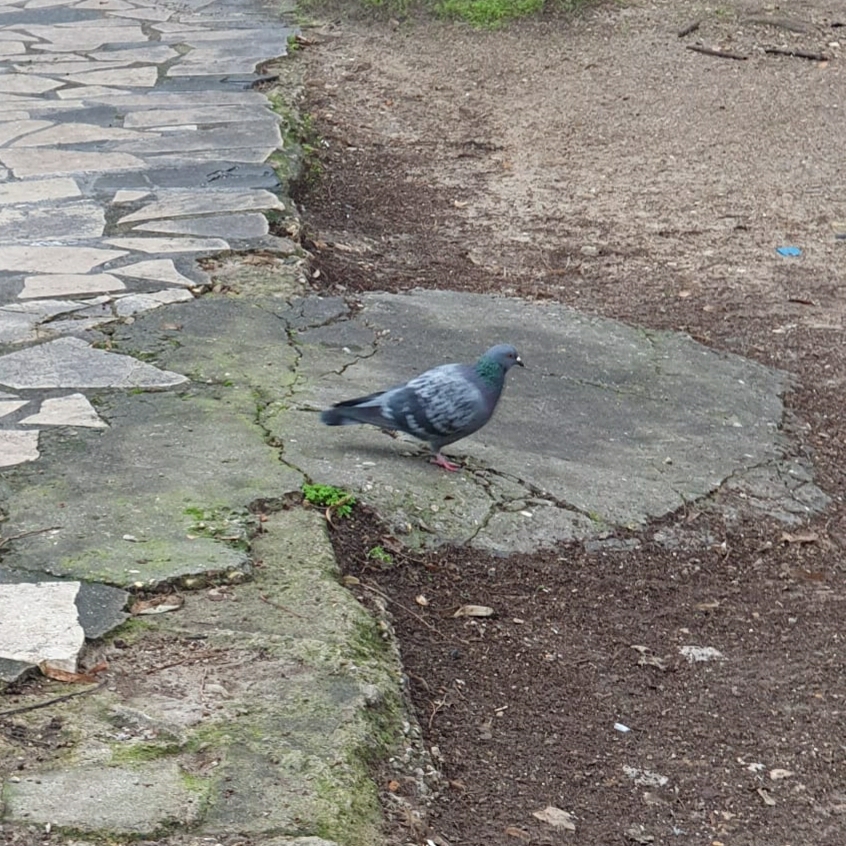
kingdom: Animalia
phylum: Chordata
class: Aves
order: Columbiformes
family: Columbidae
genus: Columba
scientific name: Columba livia
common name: Rock pigeon
